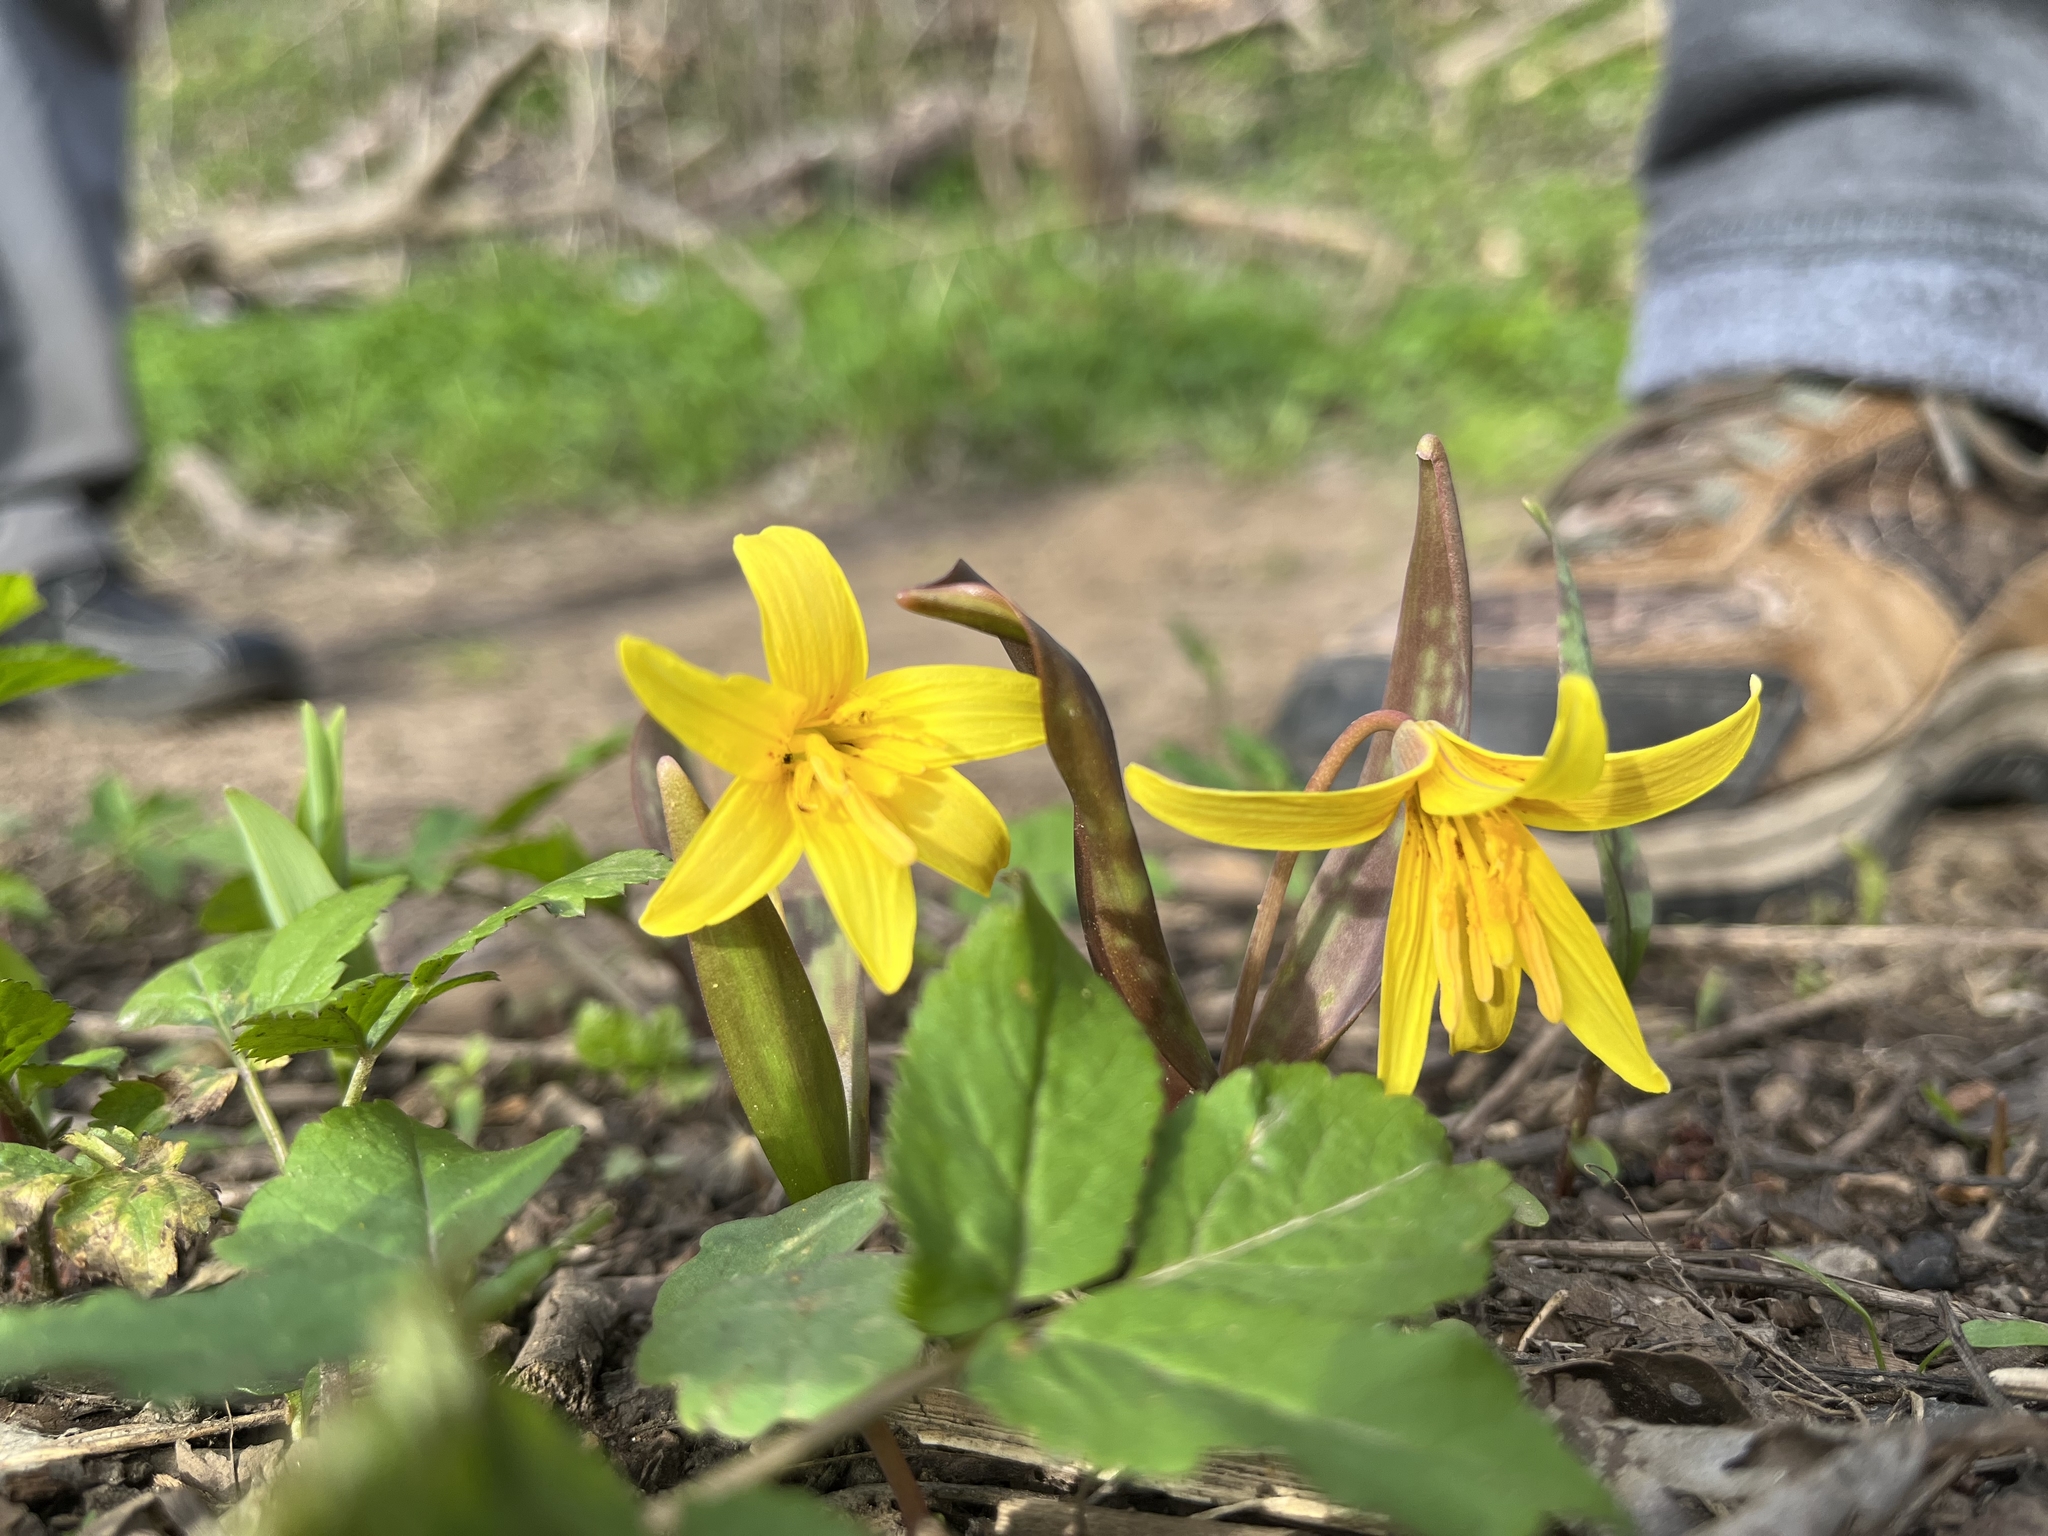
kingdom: Plantae
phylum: Tracheophyta
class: Liliopsida
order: Liliales
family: Liliaceae
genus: Erythronium
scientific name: Erythronium americanum
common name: Yellow adder's-tongue
